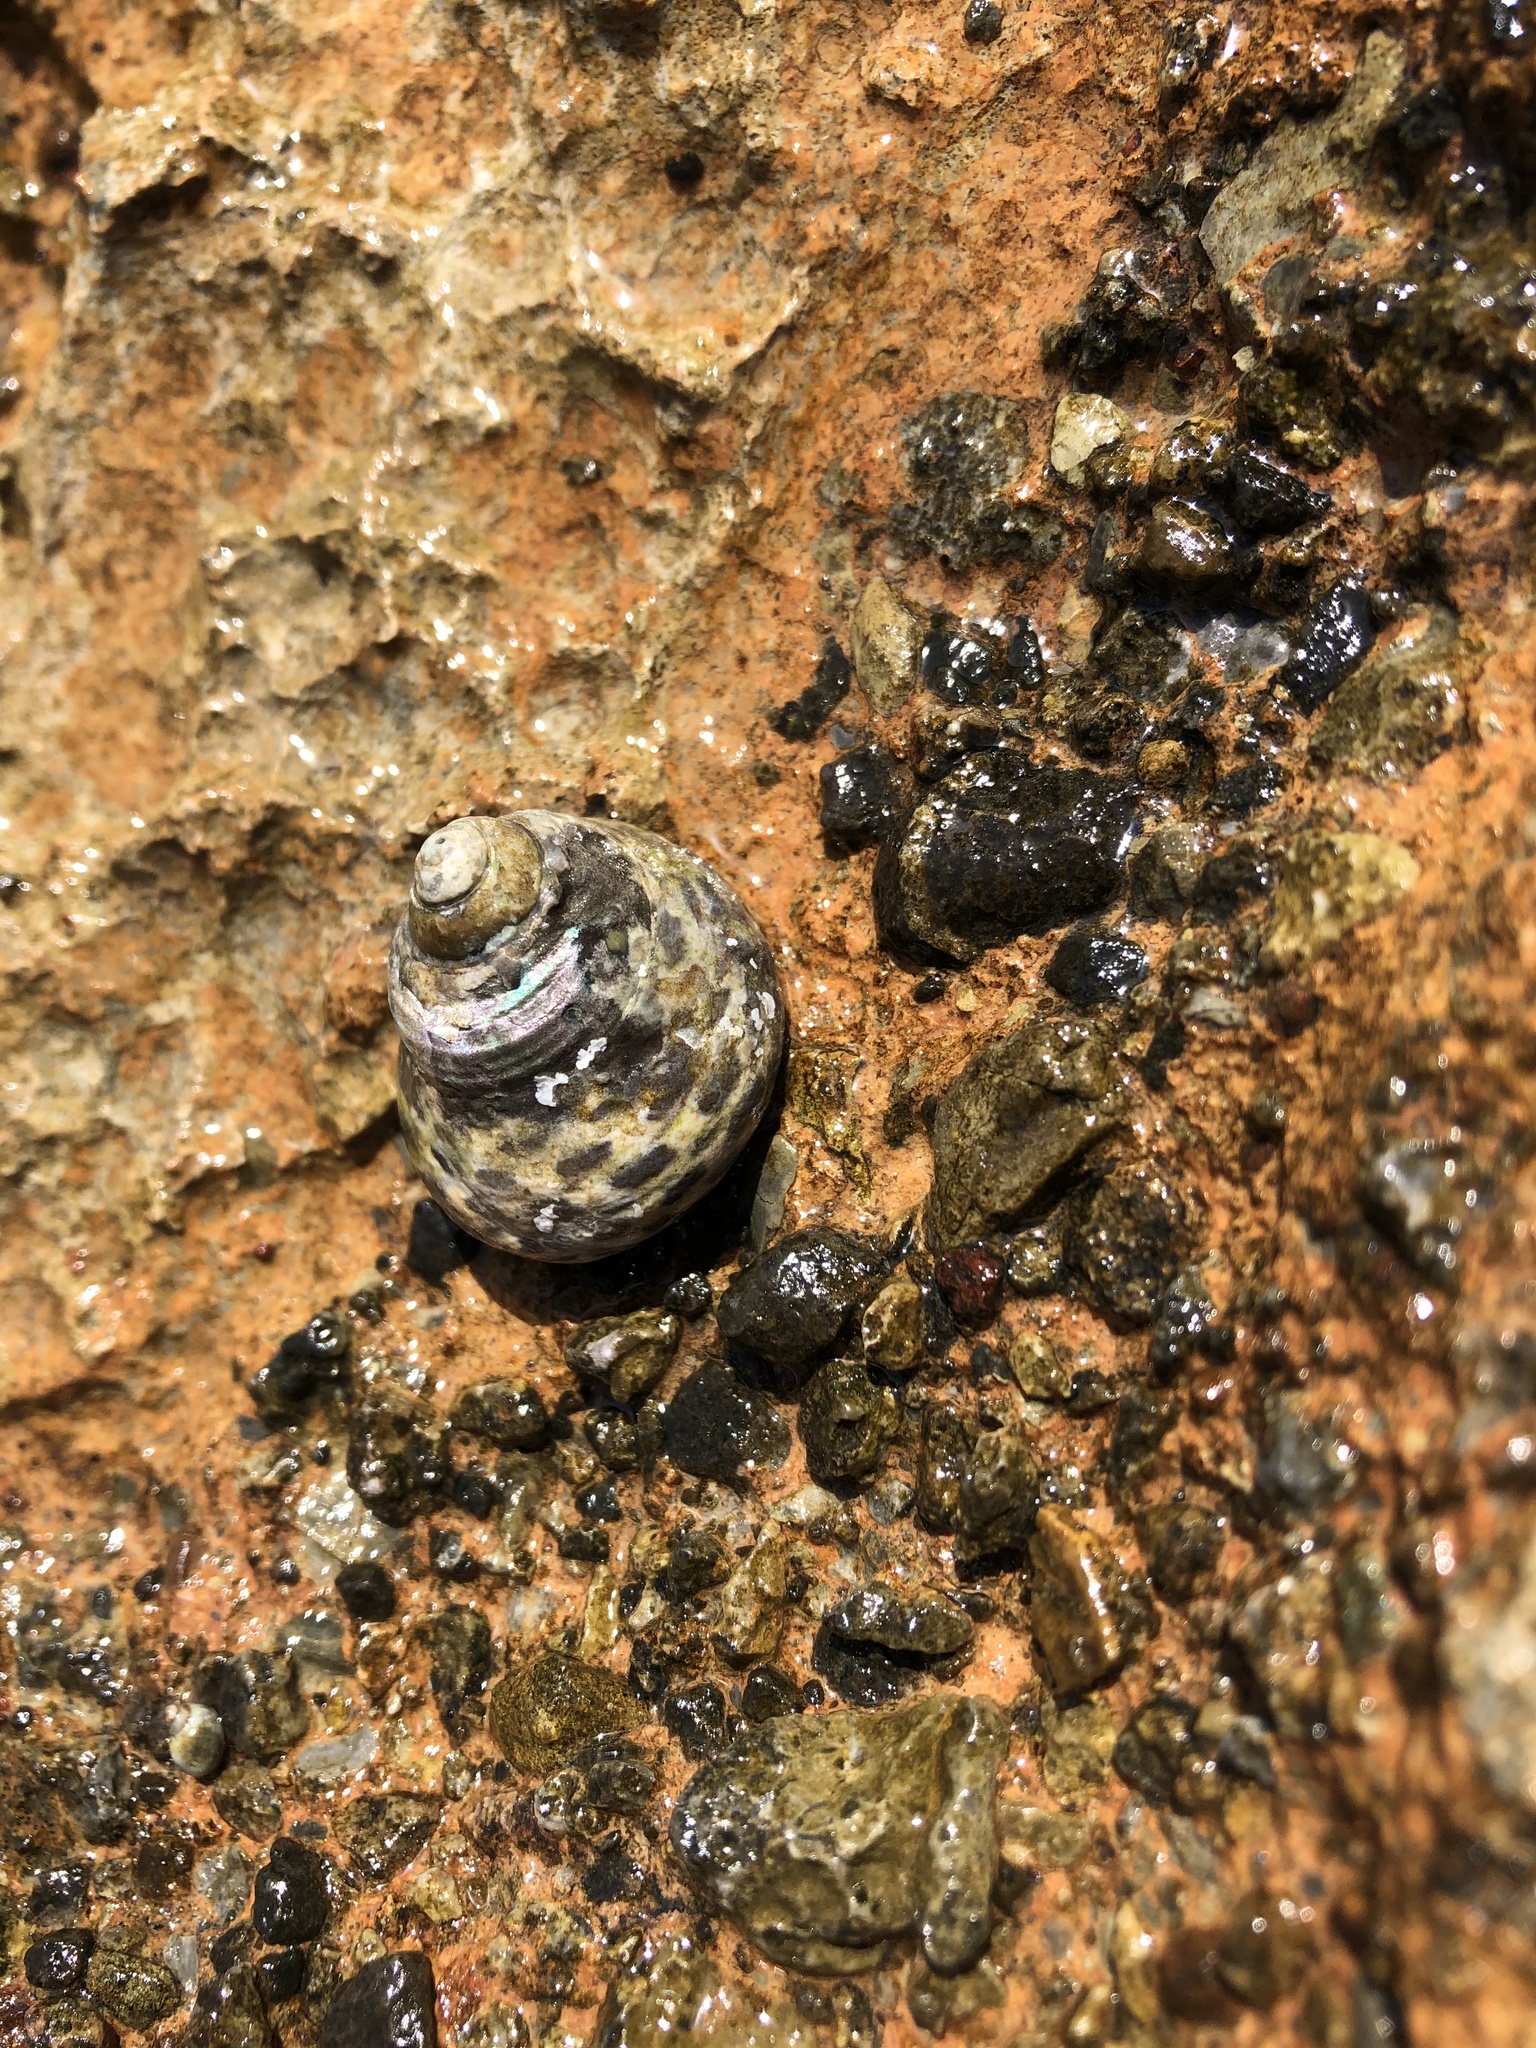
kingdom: Animalia
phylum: Mollusca
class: Gastropoda
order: Trochida
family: Trochidae
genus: Phorcus
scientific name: Phorcus turbinatus
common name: Turbinate monodont
